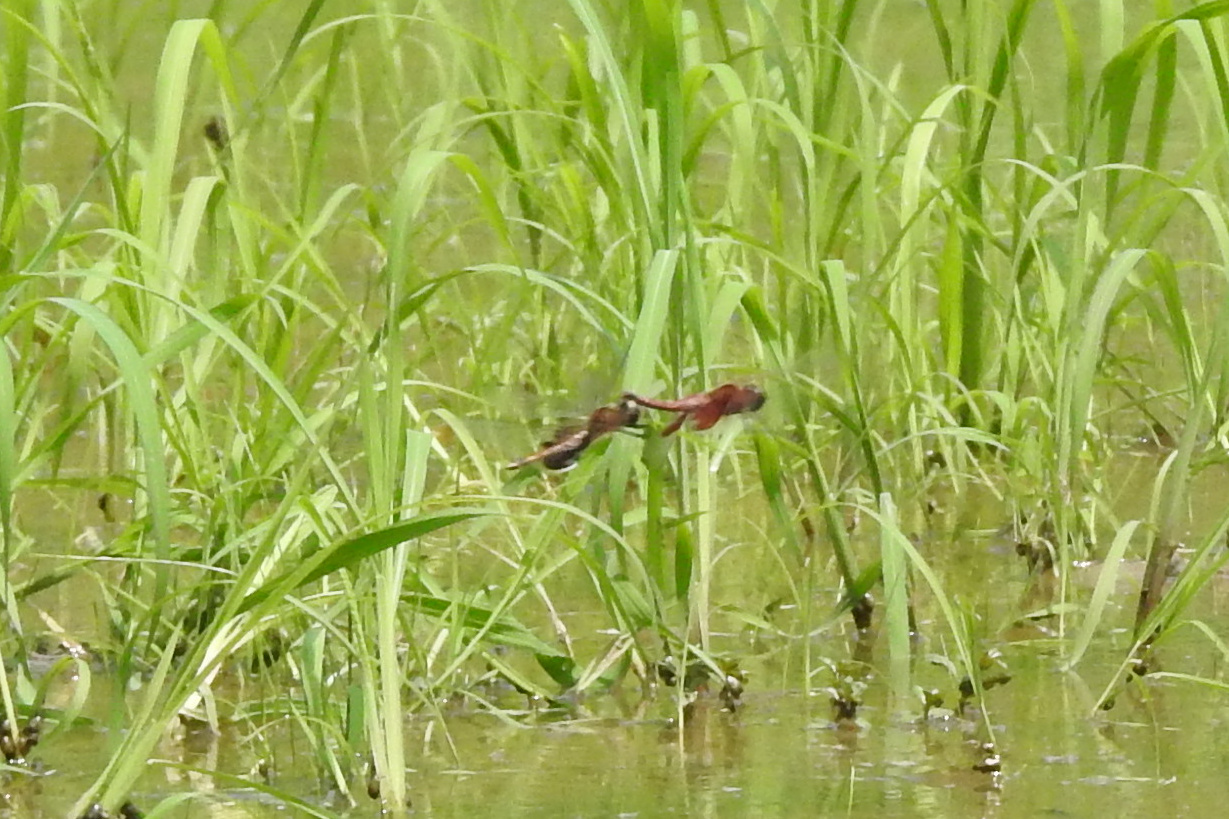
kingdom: Animalia
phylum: Arthropoda
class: Insecta
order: Odonata
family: Libellulidae
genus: Tramea
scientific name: Tramea carolina
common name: Carolina saddlebags
